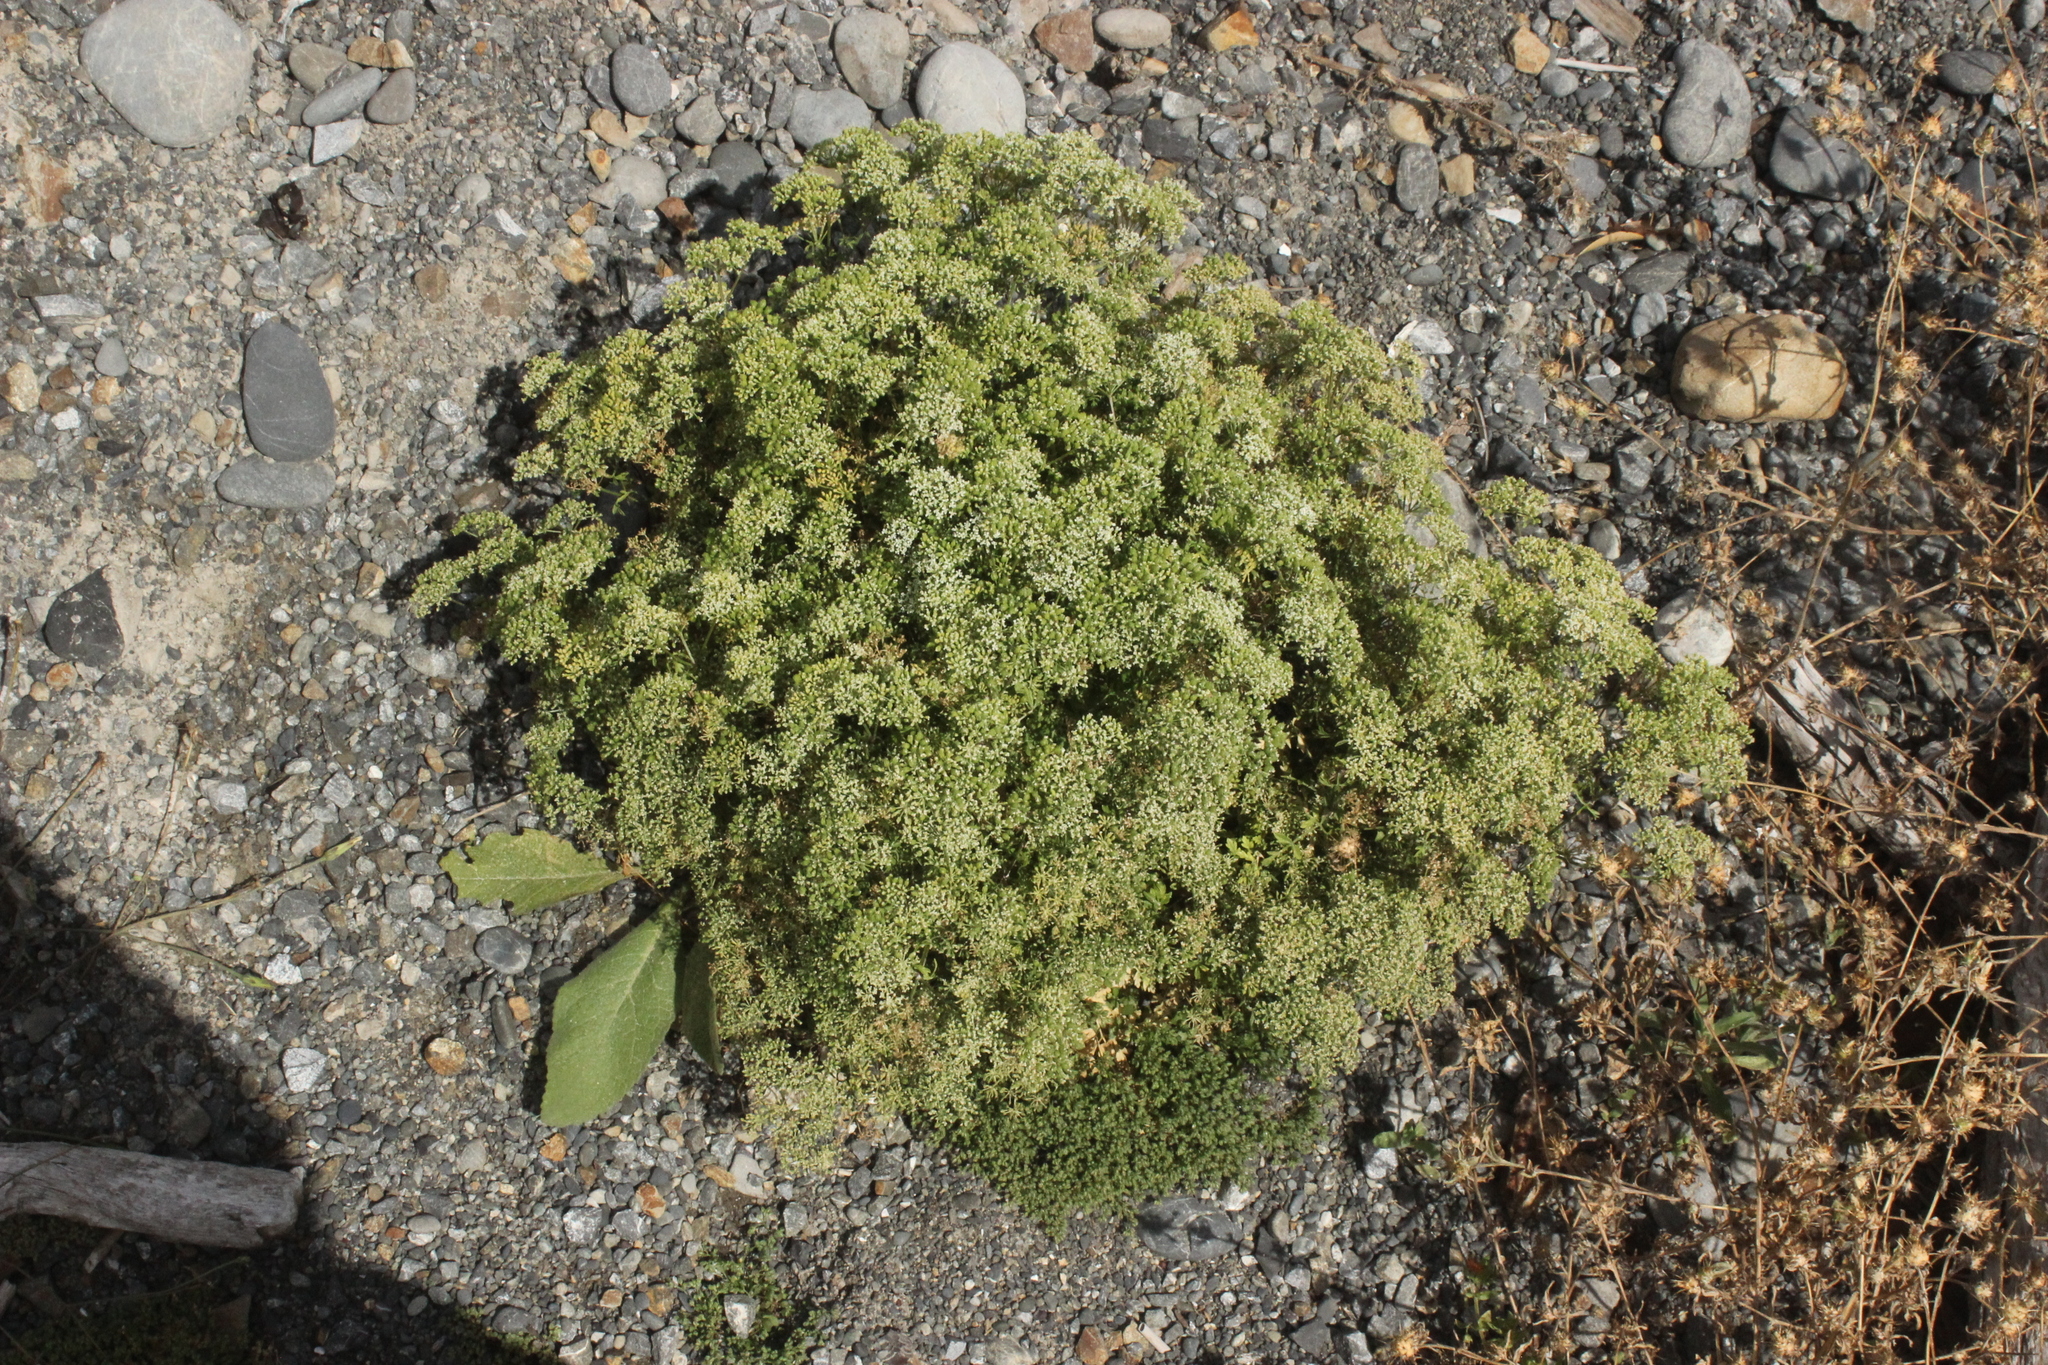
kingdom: Plantae
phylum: Tracheophyta
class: Magnoliopsida
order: Apiales
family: Apiaceae
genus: Petroselinum
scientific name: Petroselinum crispum
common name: Parsley
